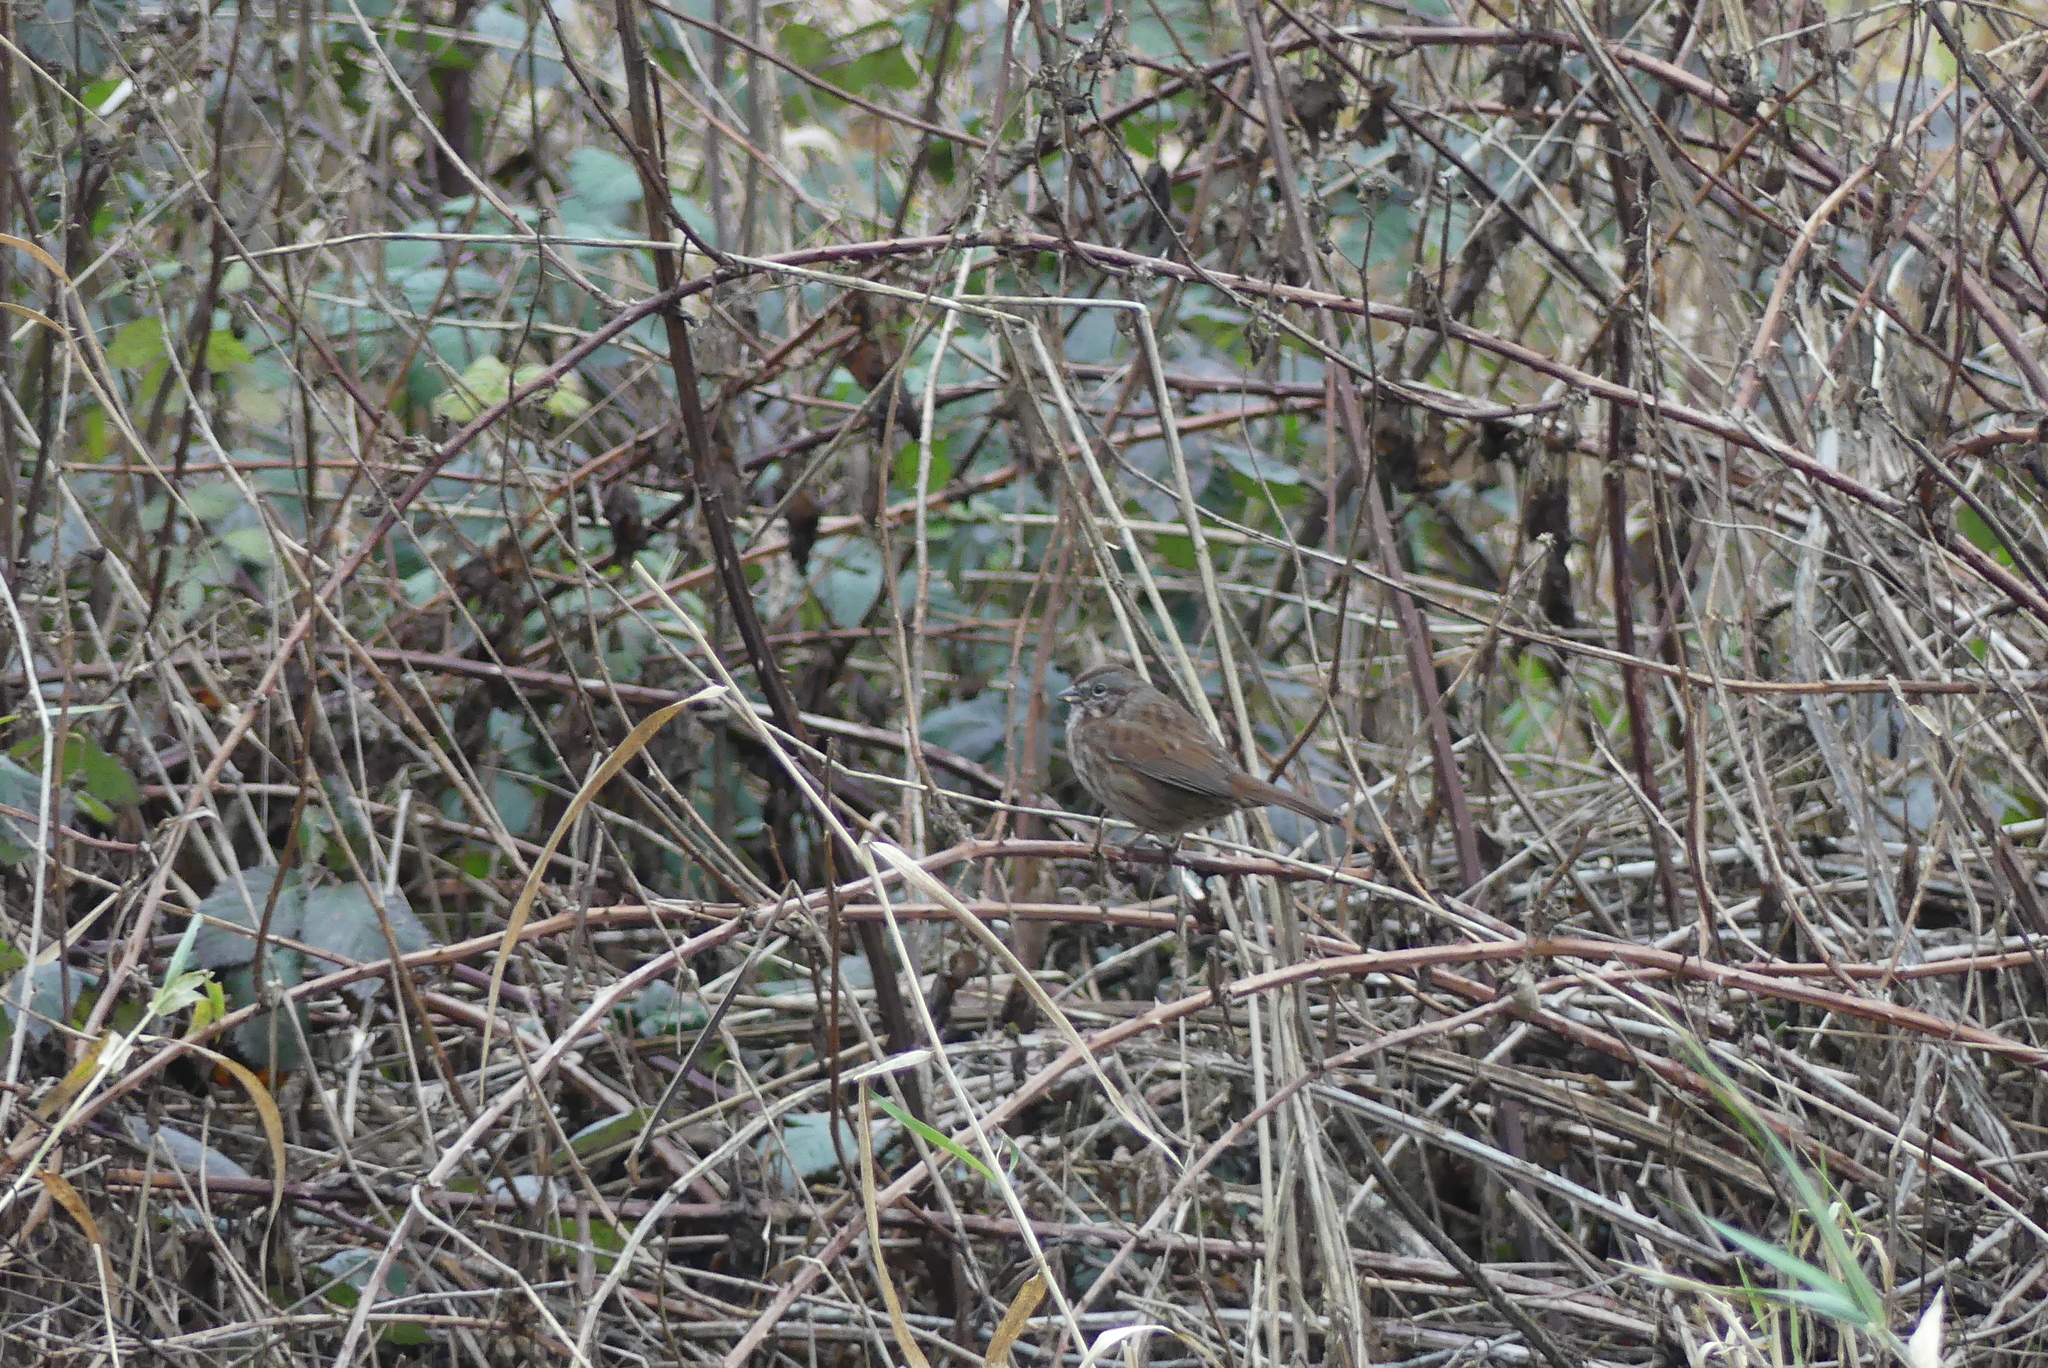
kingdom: Animalia
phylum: Chordata
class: Aves
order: Passeriformes
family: Passerellidae
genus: Melospiza
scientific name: Melospiza melodia
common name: Song sparrow
